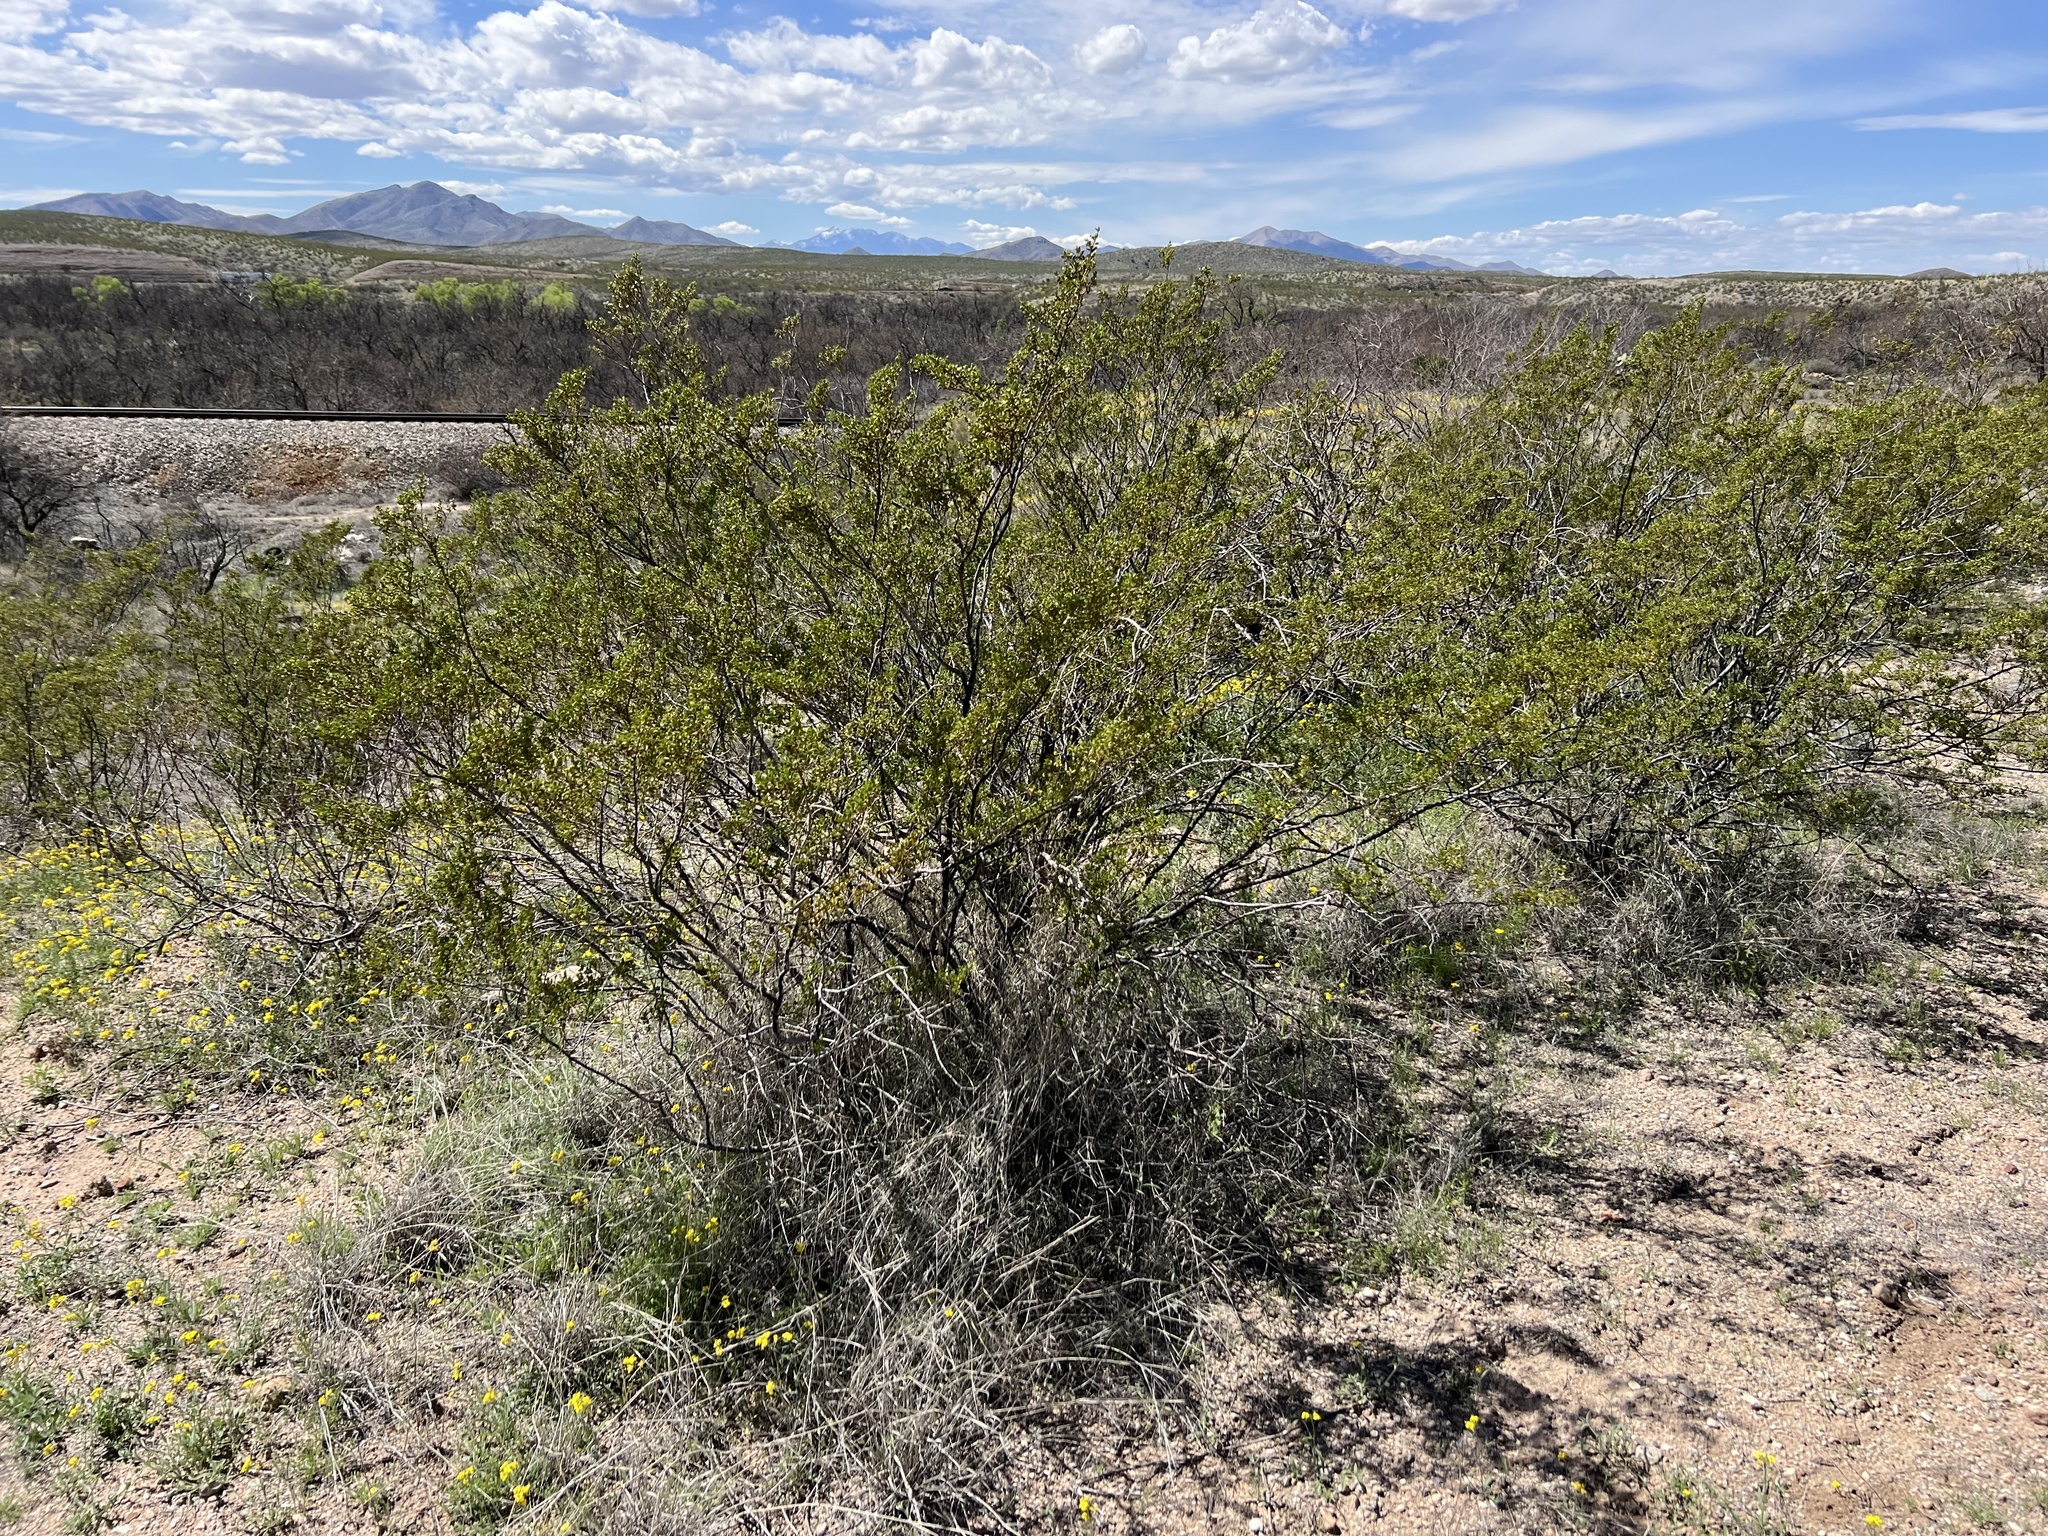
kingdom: Plantae
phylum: Tracheophyta
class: Magnoliopsida
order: Zygophyllales
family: Zygophyllaceae
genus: Larrea
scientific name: Larrea tridentata
